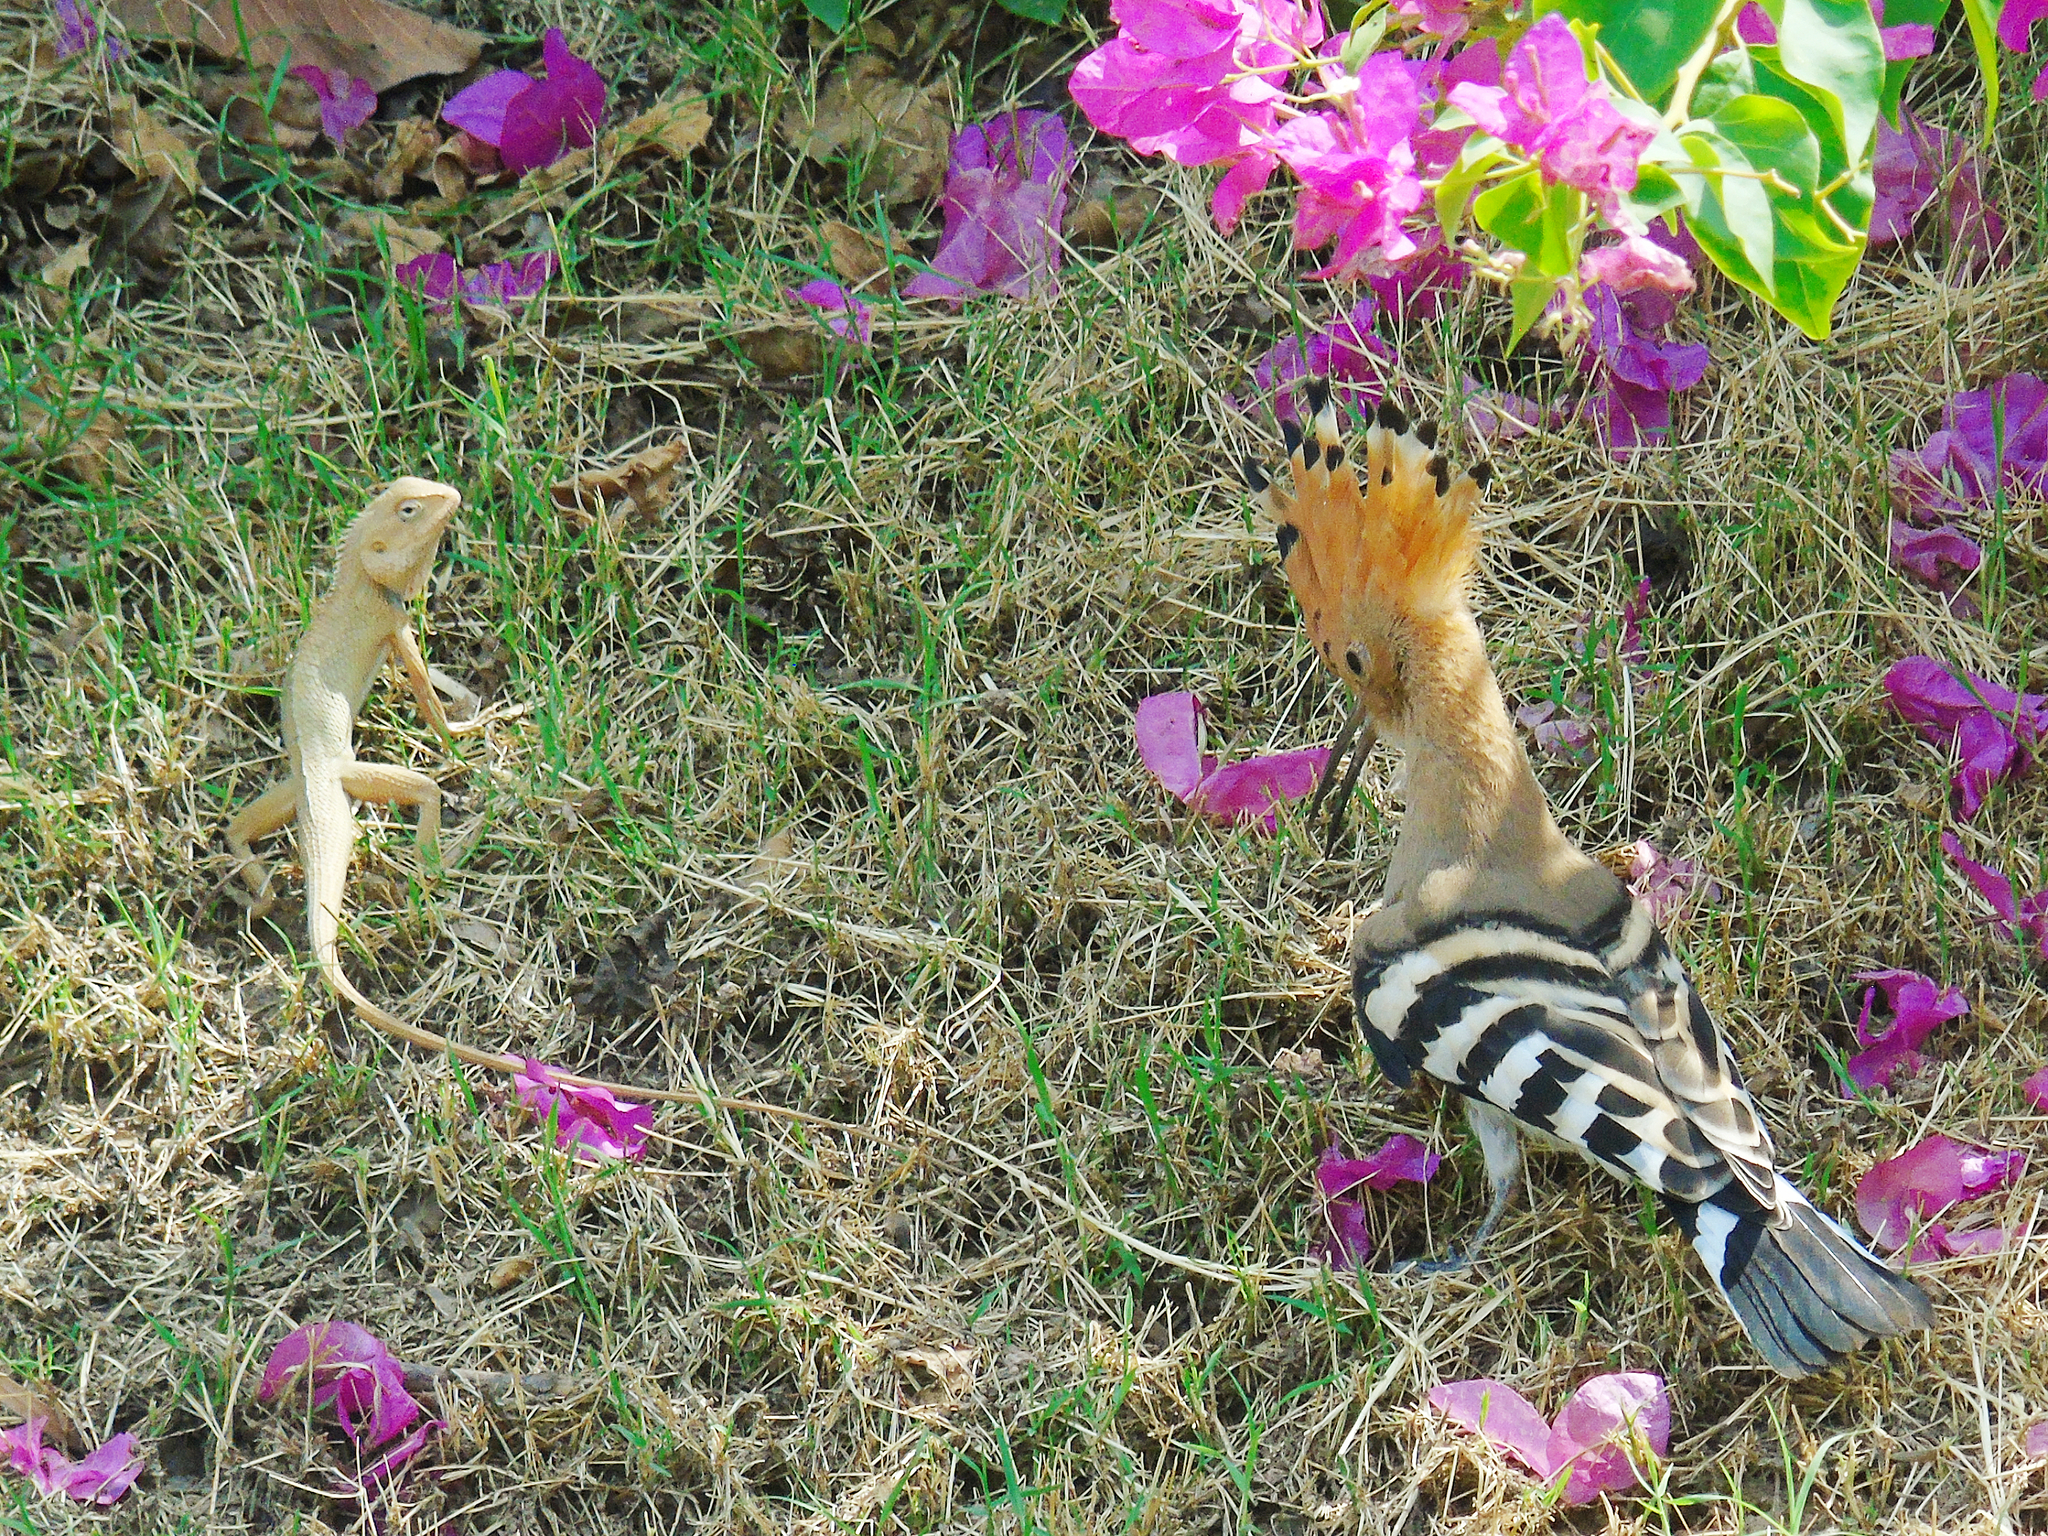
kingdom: Animalia
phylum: Chordata
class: Squamata
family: Agamidae
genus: Calotes
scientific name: Calotes versicolor
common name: Oriental garden lizard
